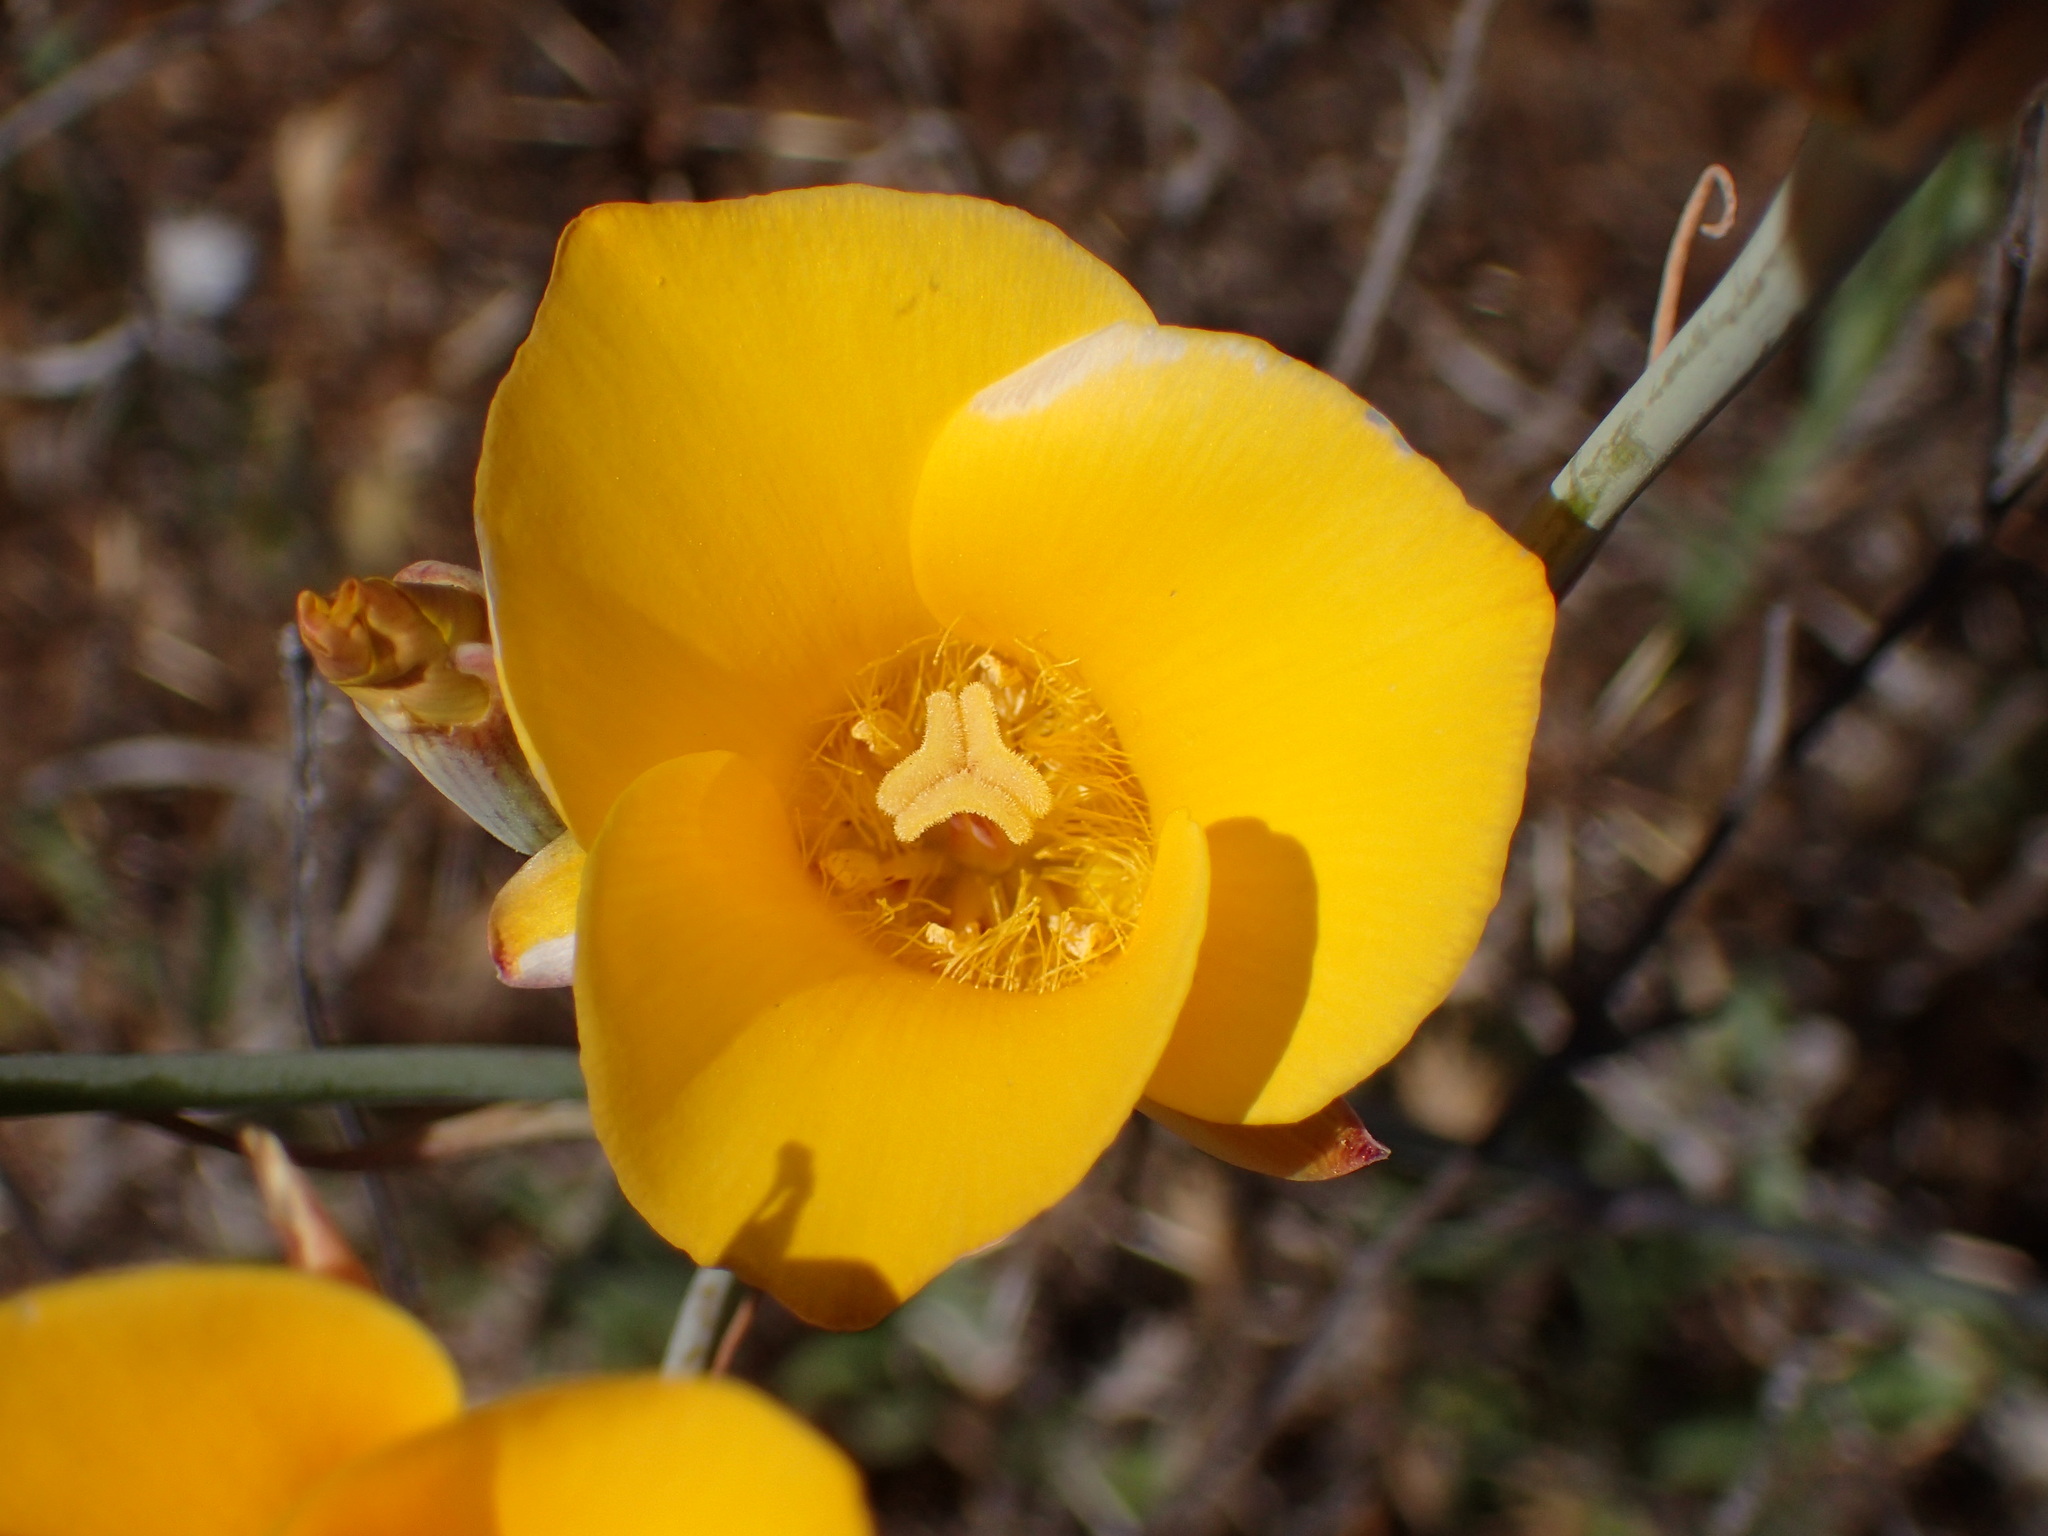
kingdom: Plantae
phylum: Tracheophyta
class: Liliopsida
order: Liliales
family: Liliaceae
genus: Calochortus
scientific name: Calochortus clavatus
